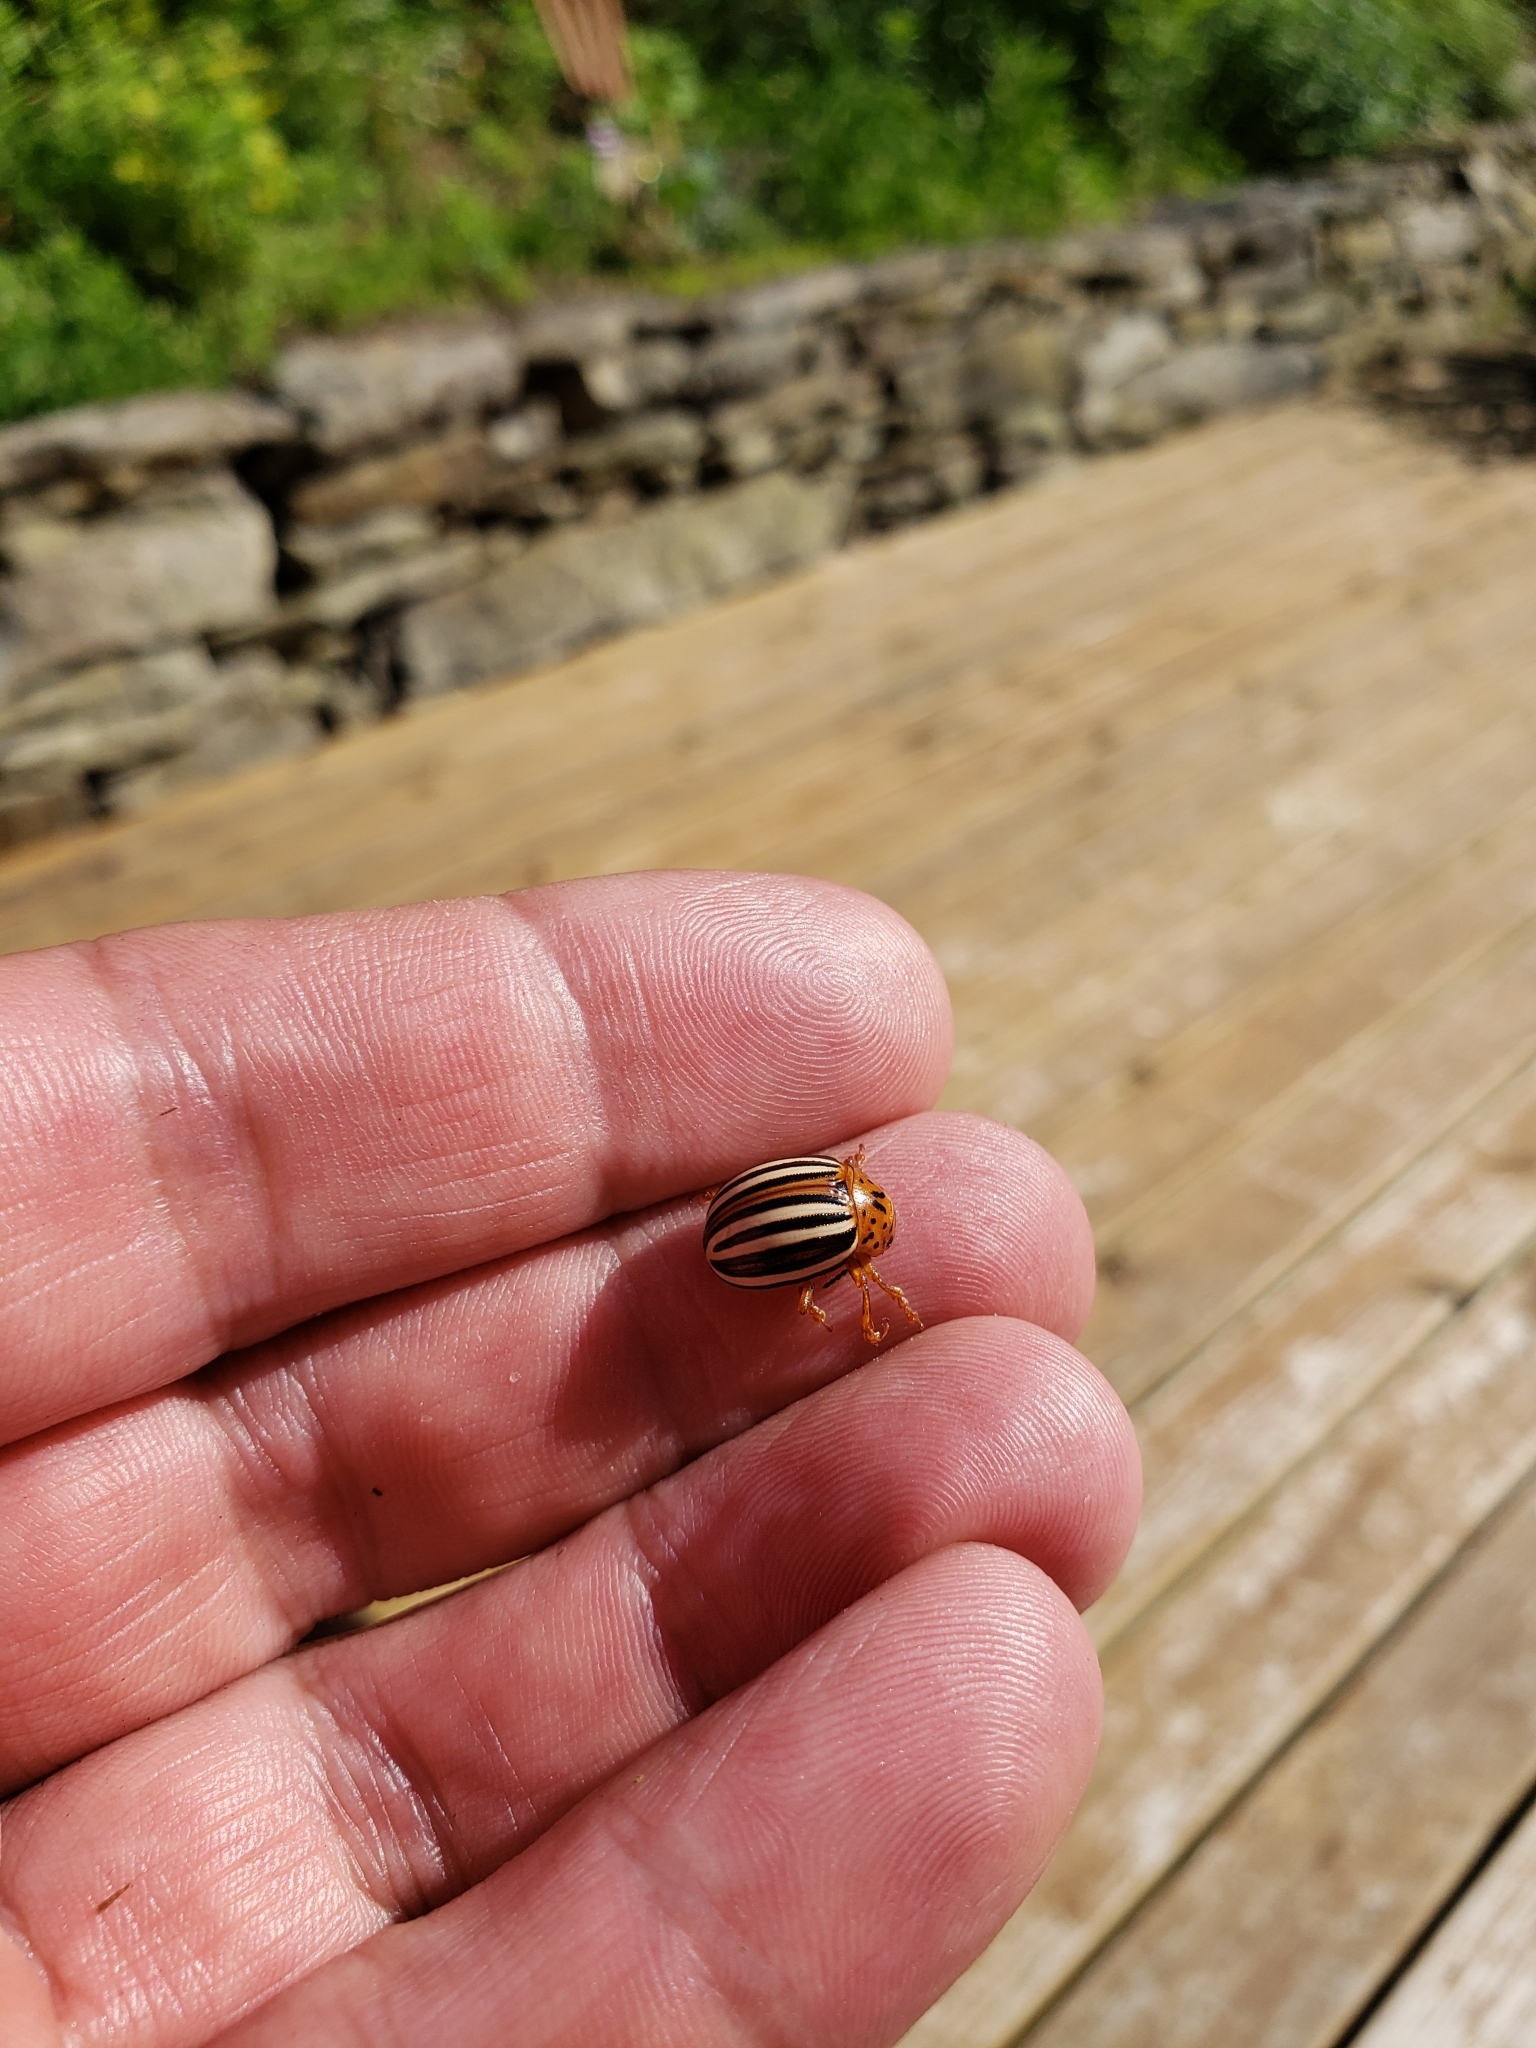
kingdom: Animalia
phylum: Arthropoda
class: Insecta
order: Coleoptera
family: Chrysomelidae
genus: Leptinotarsa
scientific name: Leptinotarsa juncta
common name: False potato beetle
